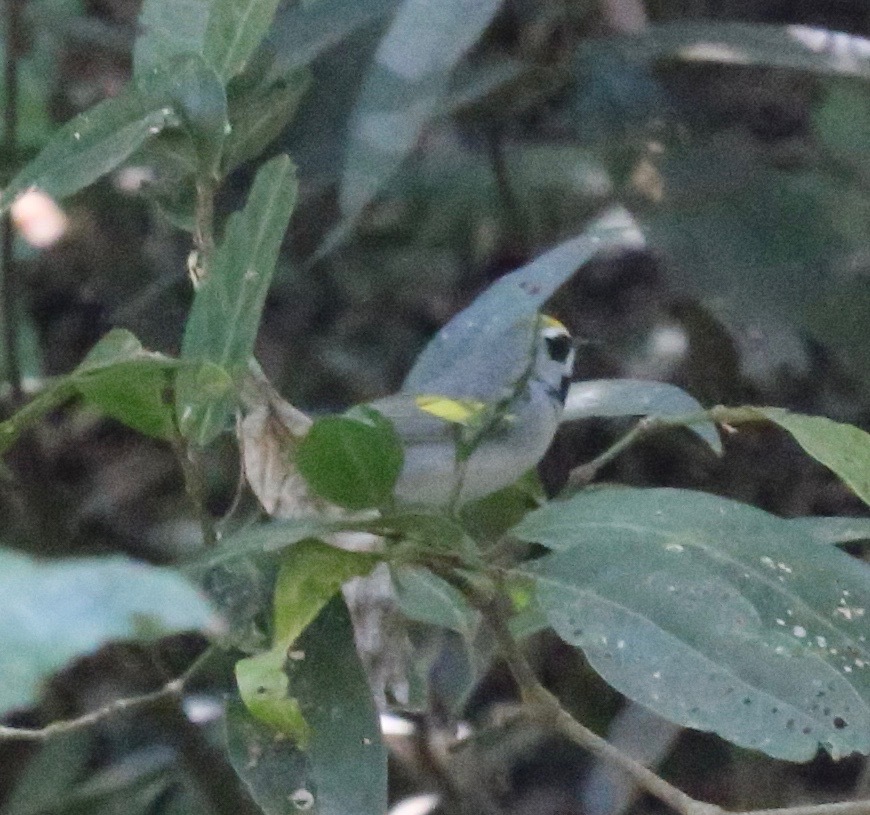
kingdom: Animalia
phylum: Chordata
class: Aves
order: Passeriformes
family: Parulidae
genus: Vermivora
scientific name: Vermivora chrysoptera
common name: Golden-winged warbler
